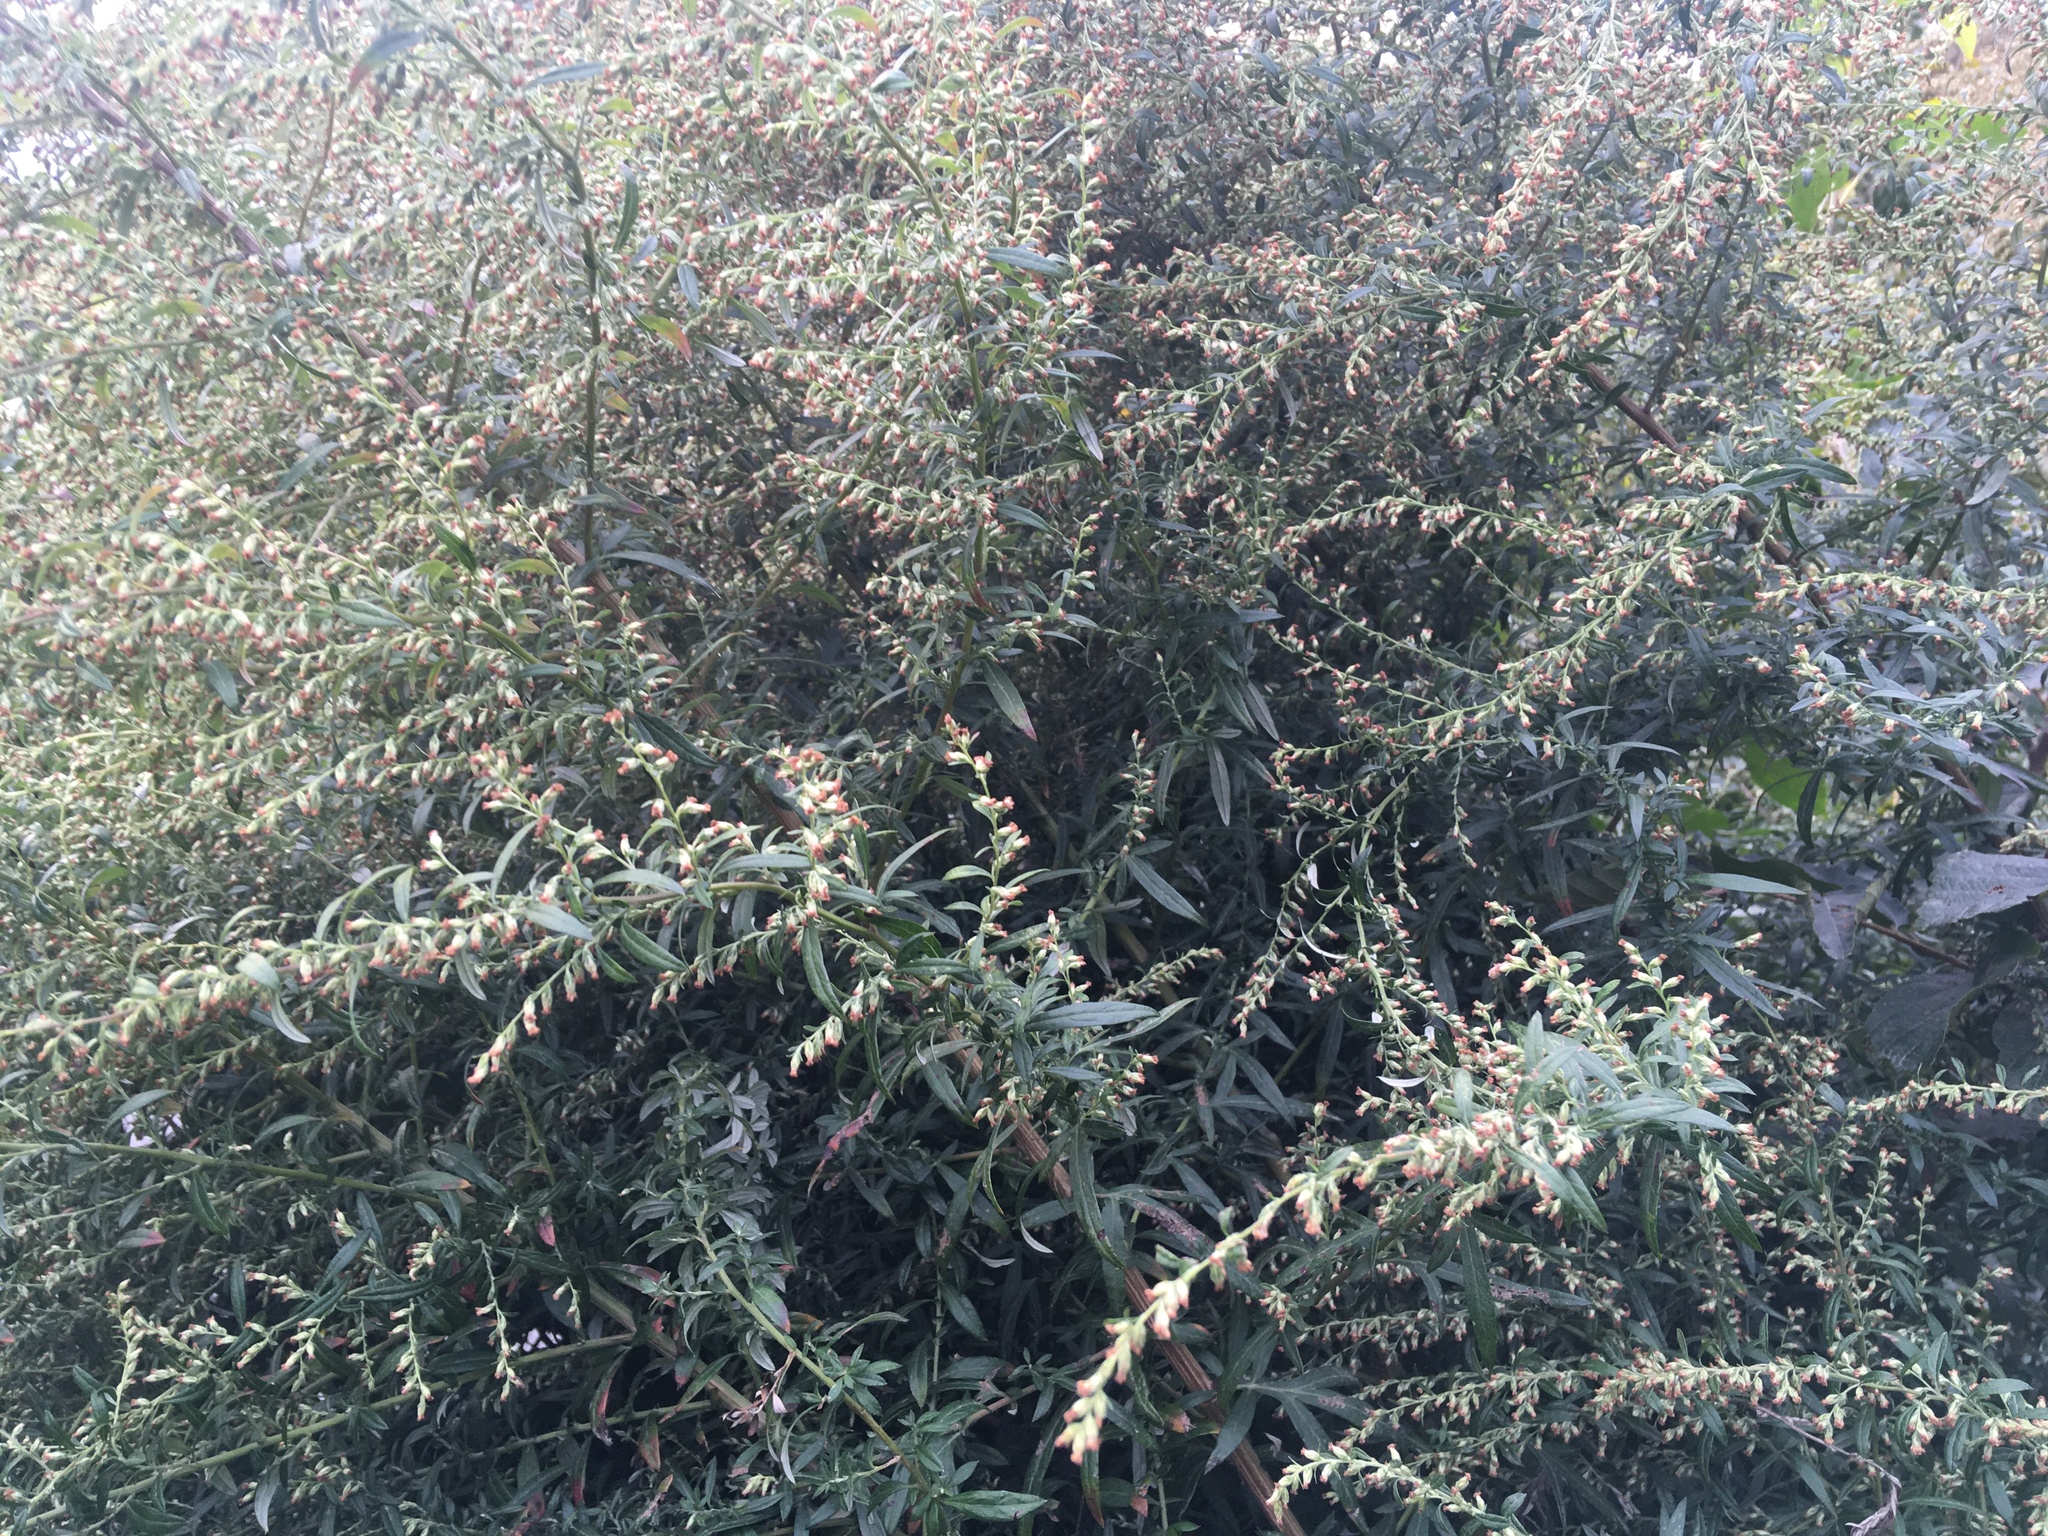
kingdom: Plantae
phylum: Tracheophyta
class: Magnoliopsida
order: Asterales
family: Asteraceae
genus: Artemisia
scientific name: Artemisia vulgaris
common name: Mugwort
